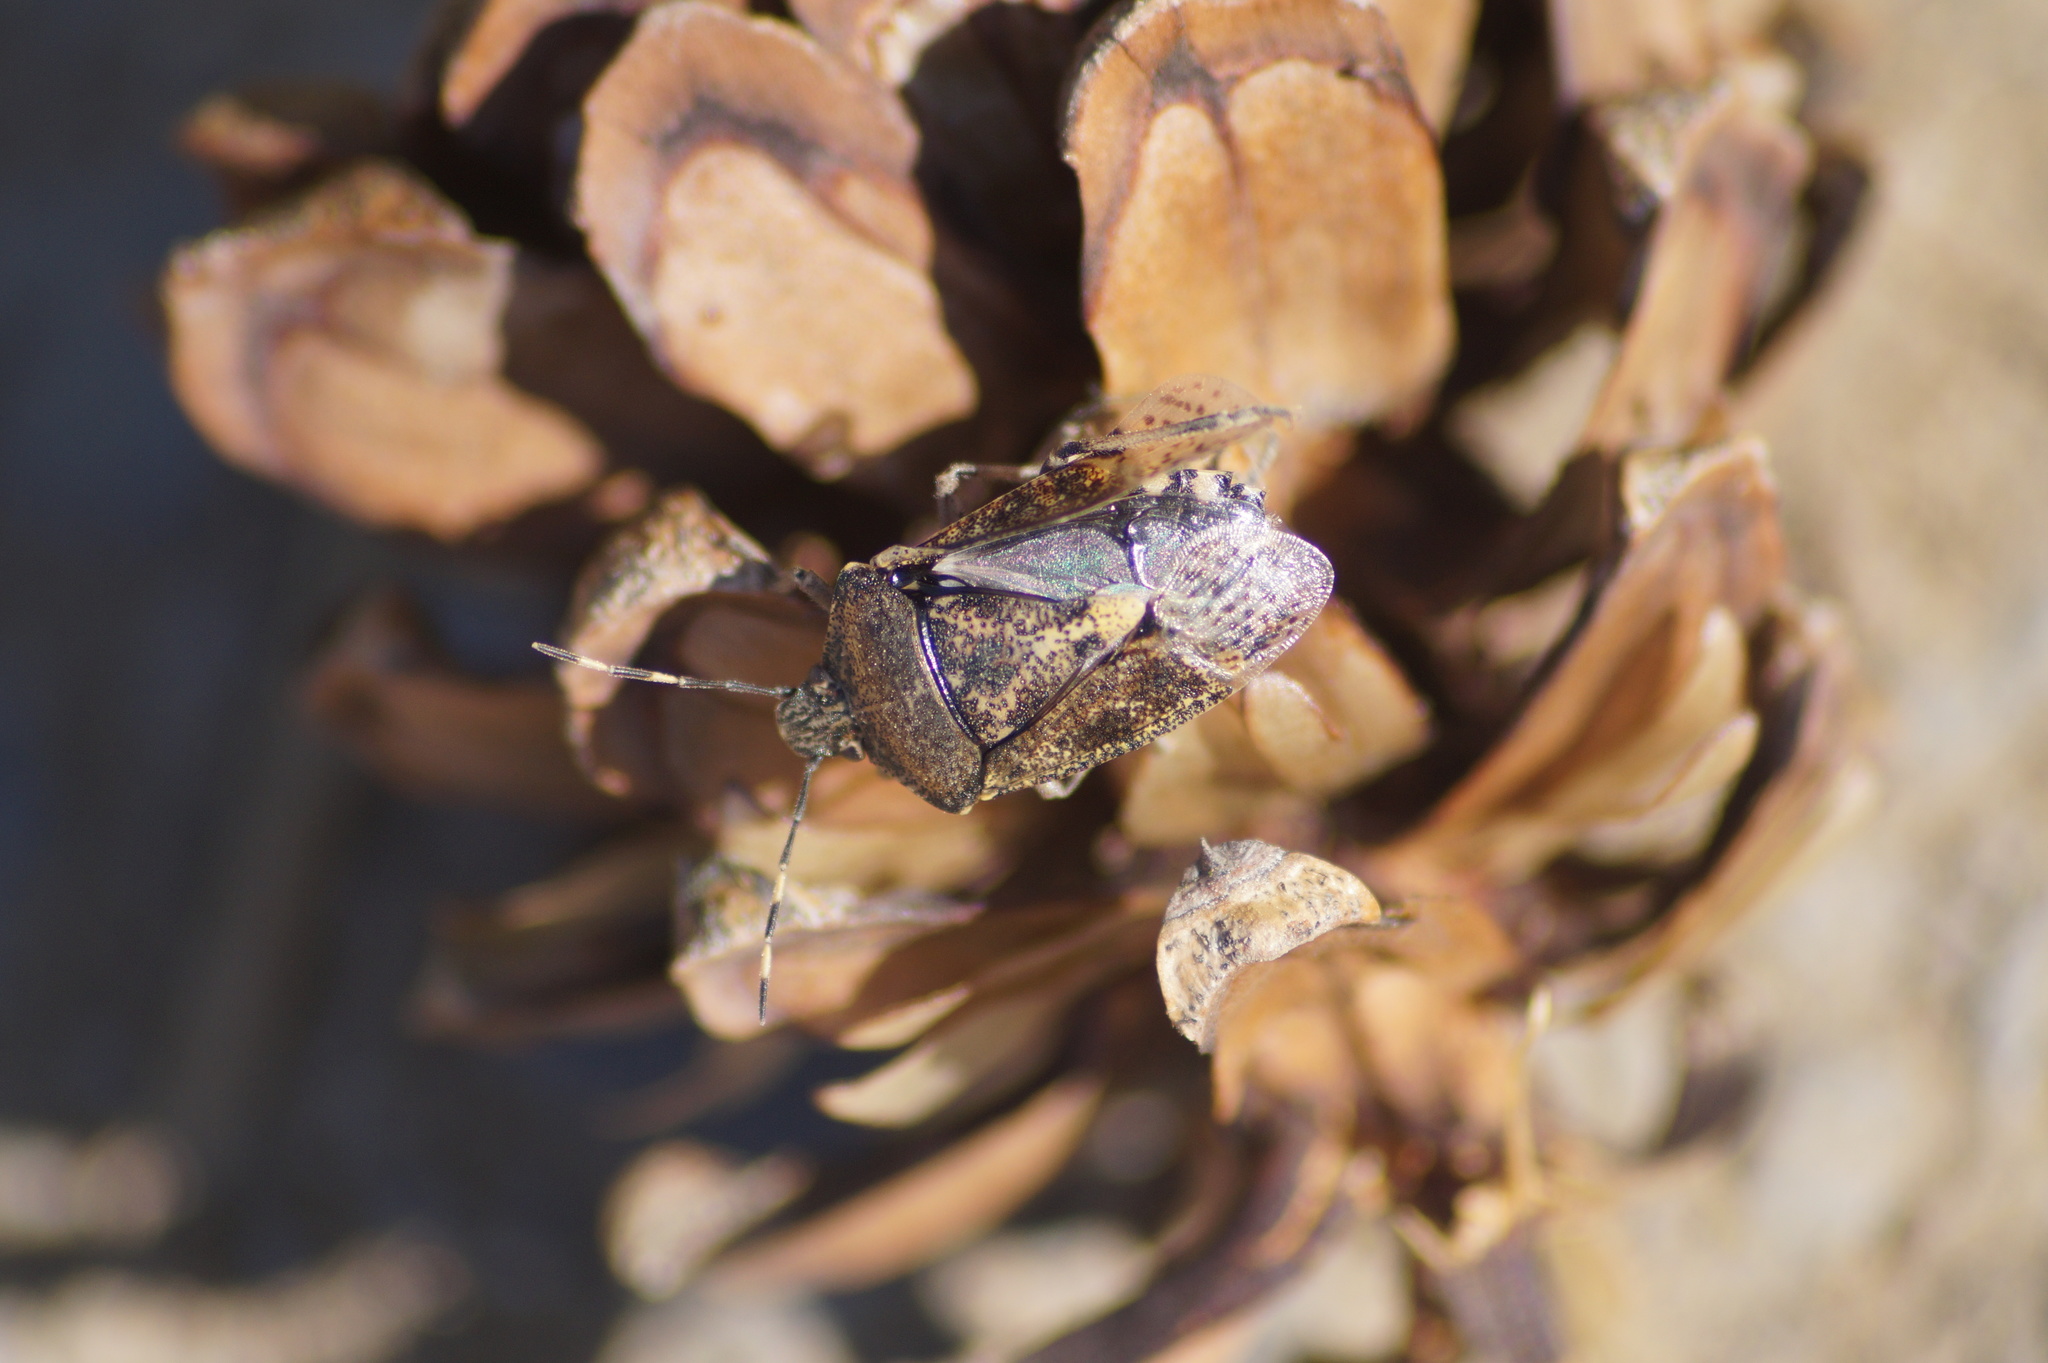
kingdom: Animalia
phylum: Arthropoda
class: Insecta
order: Hemiptera
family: Pentatomidae
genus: Rhaphigaster
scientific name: Rhaphigaster nebulosa
